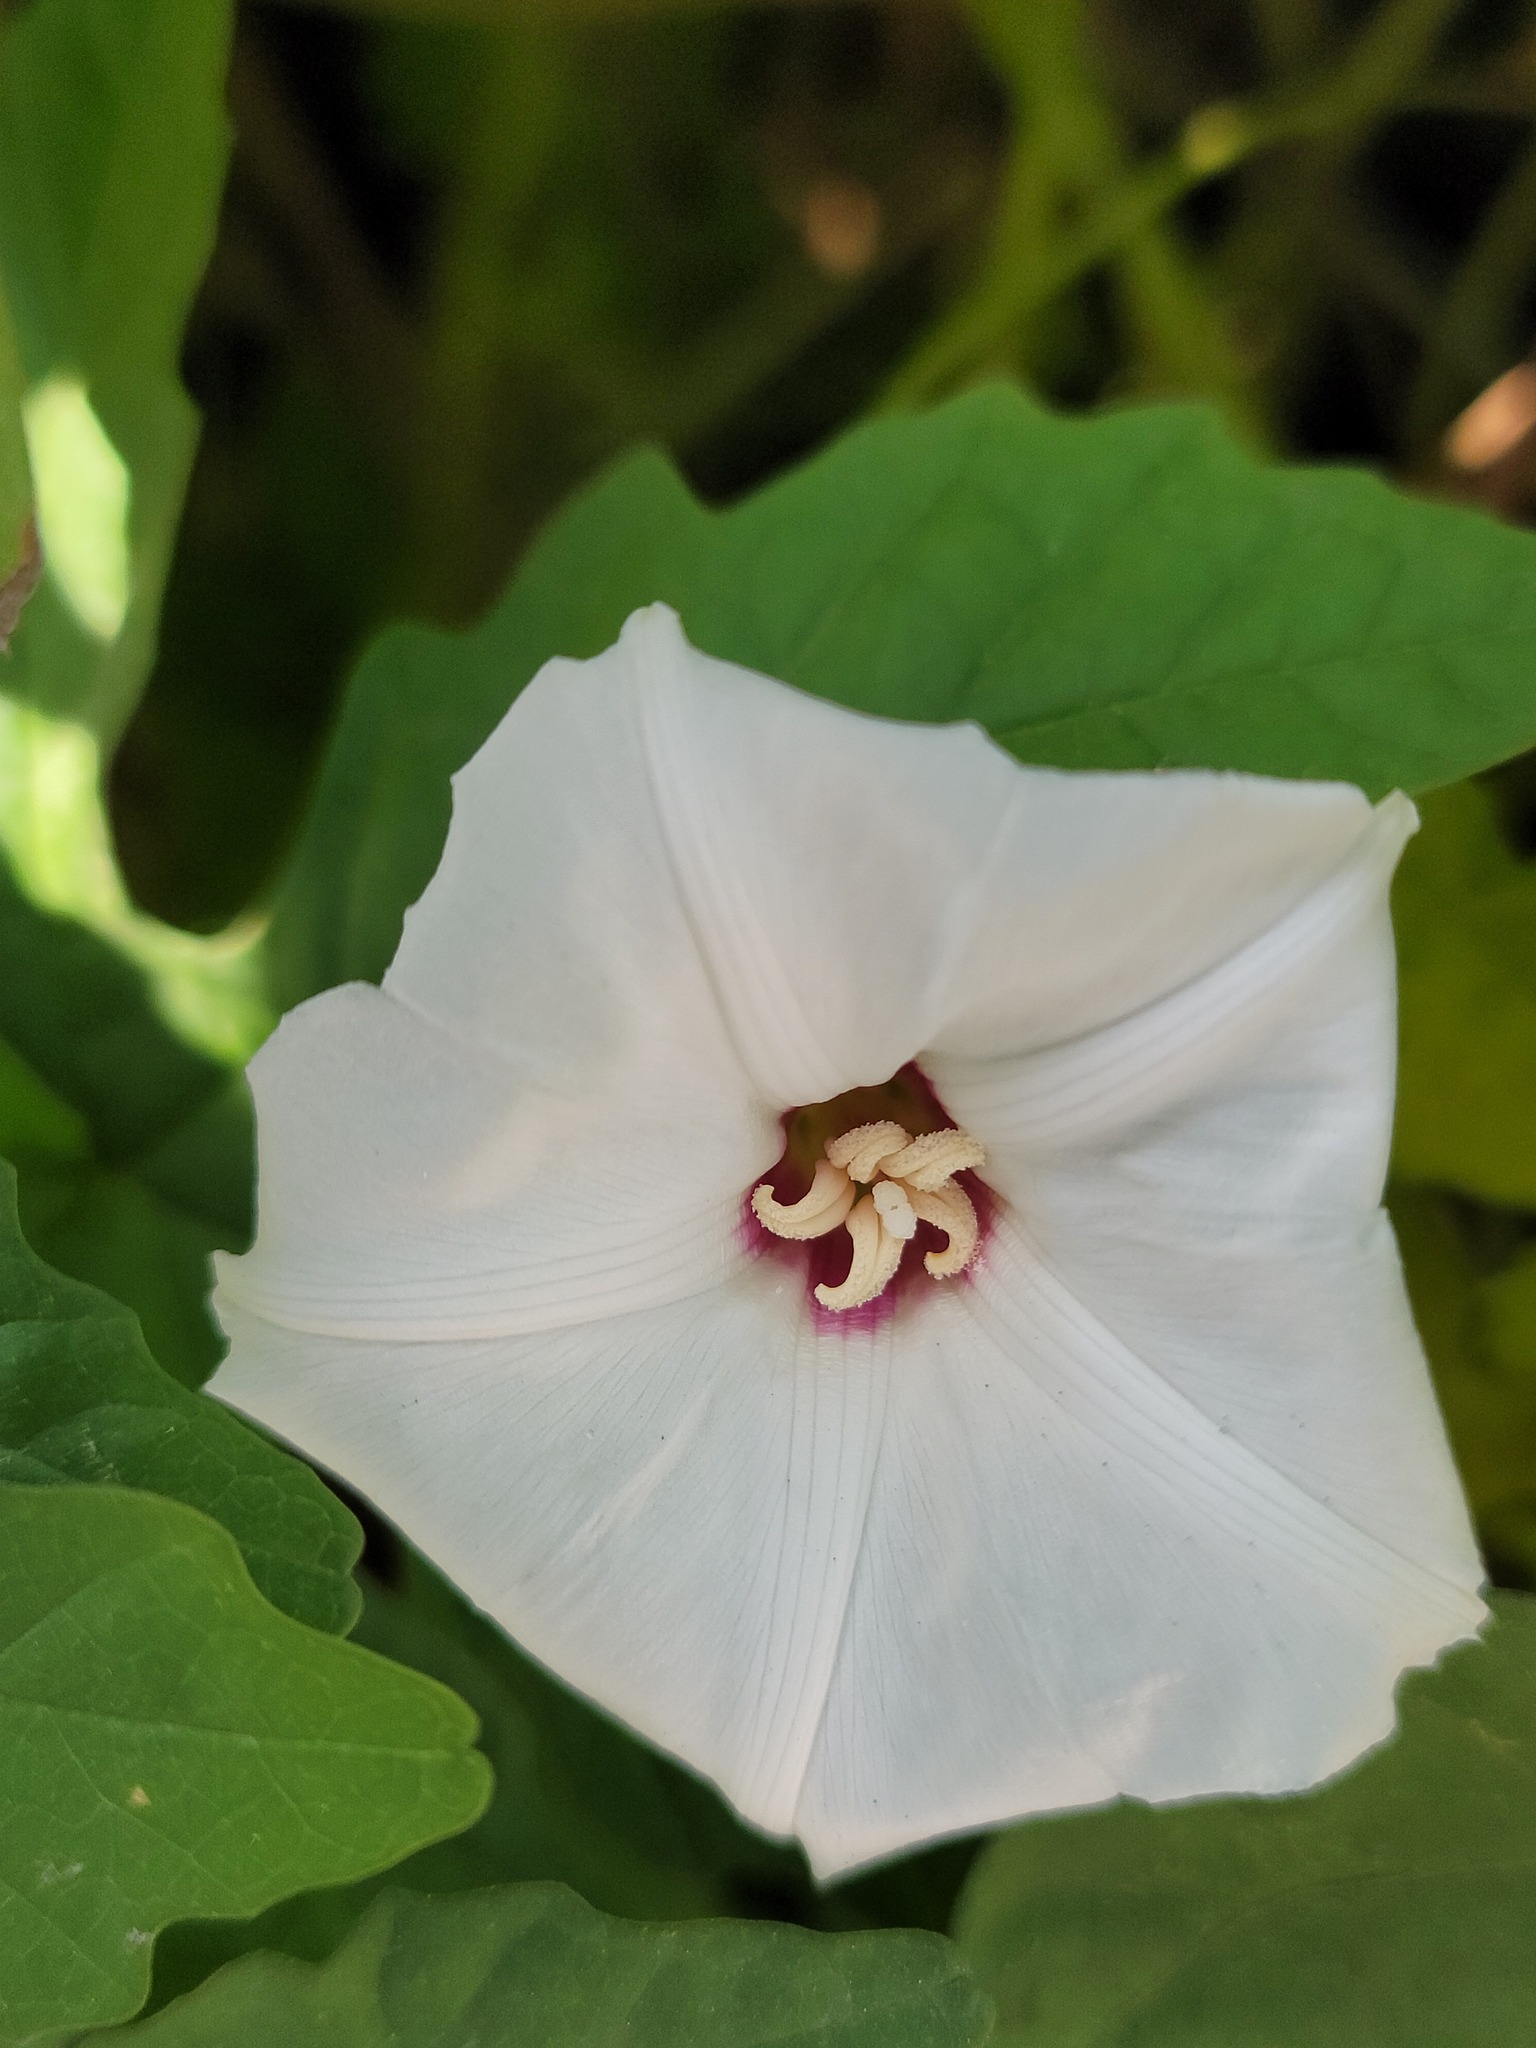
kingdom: Plantae
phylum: Tracheophyta
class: Magnoliopsida
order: Solanales
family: Convolvulaceae
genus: Distimake
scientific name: Distimake dissectus
